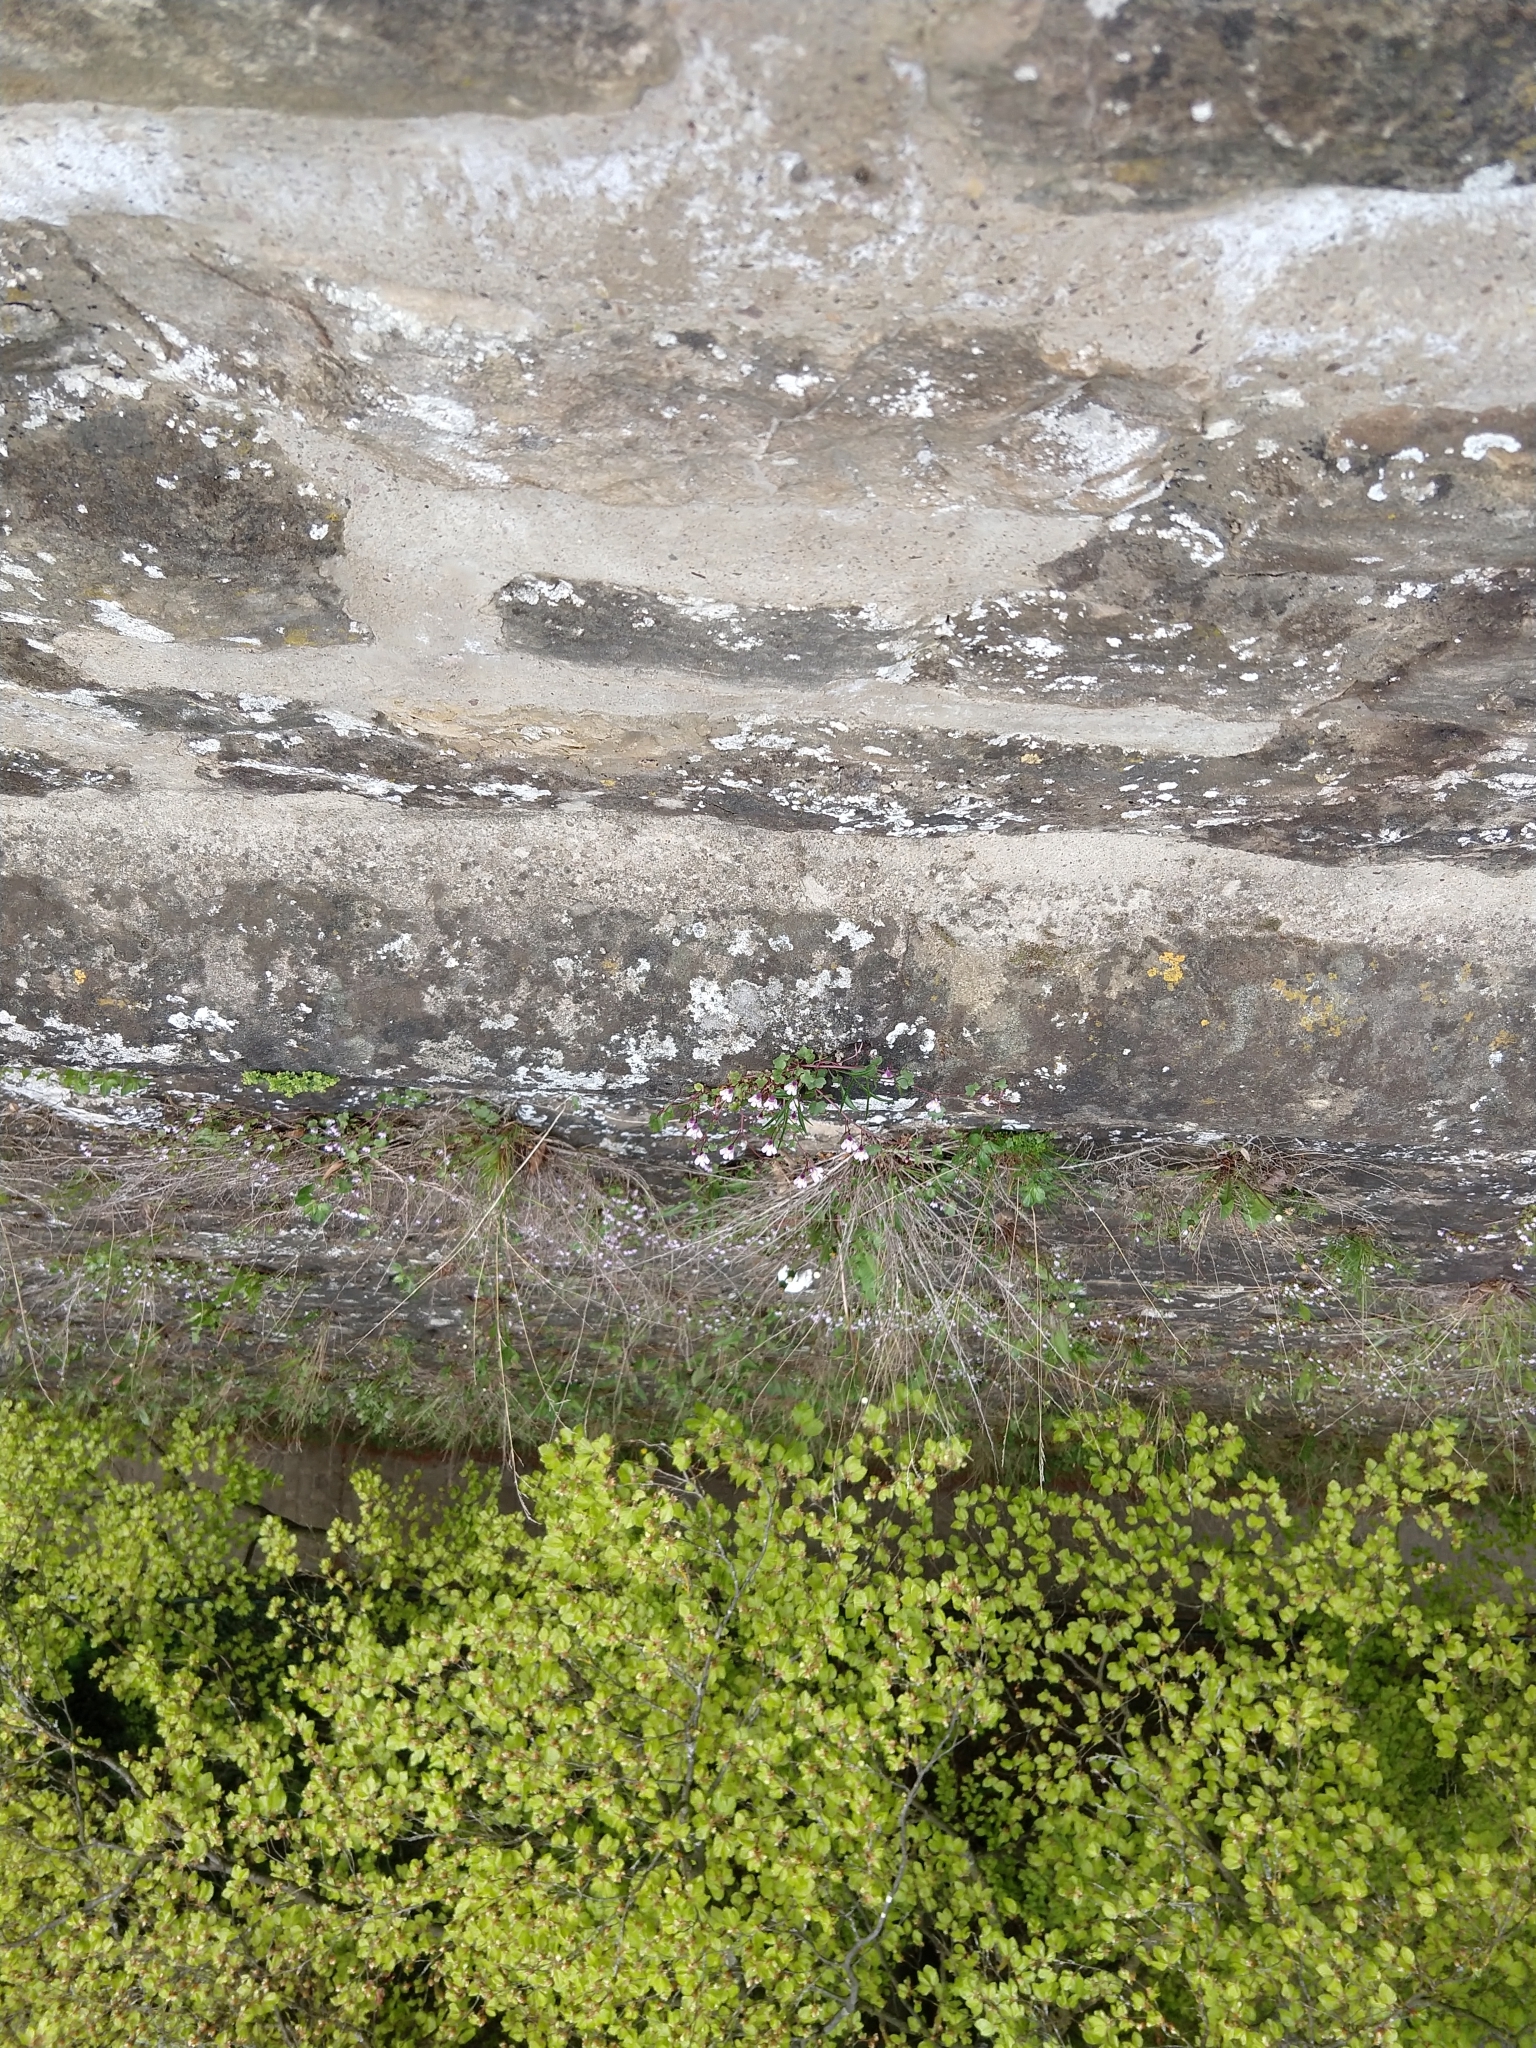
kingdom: Plantae
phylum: Tracheophyta
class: Magnoliopsida
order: Lamiales
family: Plantaginaceae
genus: Cymbalaria
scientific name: Cymbalaria muralis
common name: Ivy-leaved toadflax
